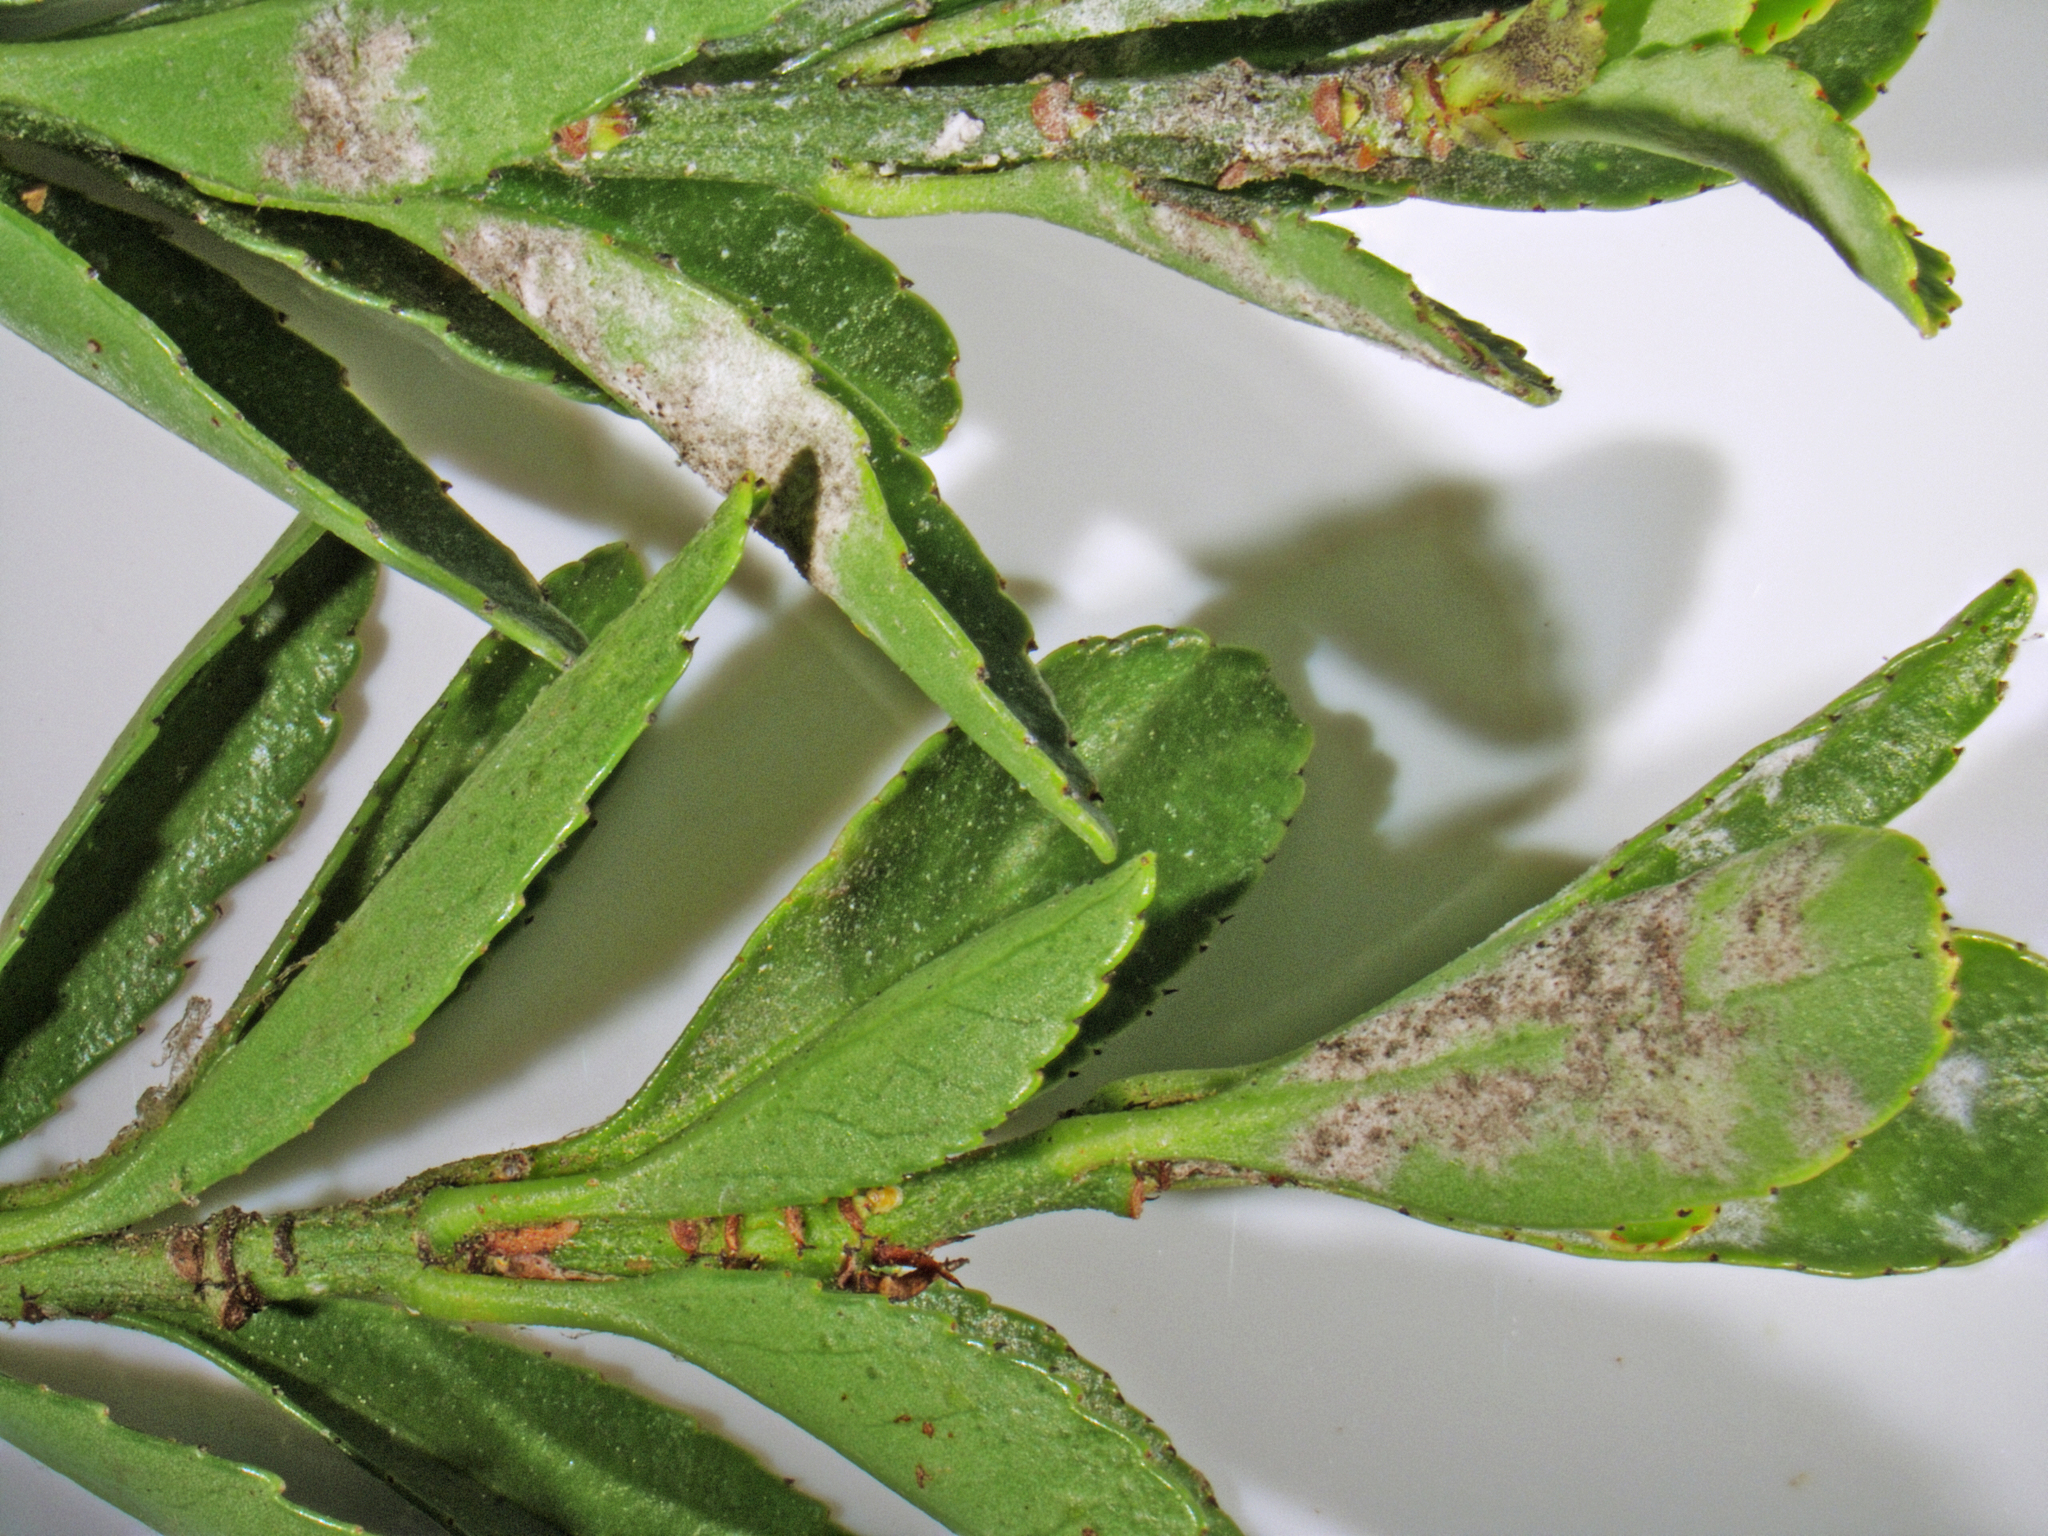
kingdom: Fungi
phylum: Ascomycota
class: Leotiomycetes
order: Helotiales
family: Erysiphaceae
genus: Erysiphe
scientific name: Erysiphe euonymicola
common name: Spindletree mildew
